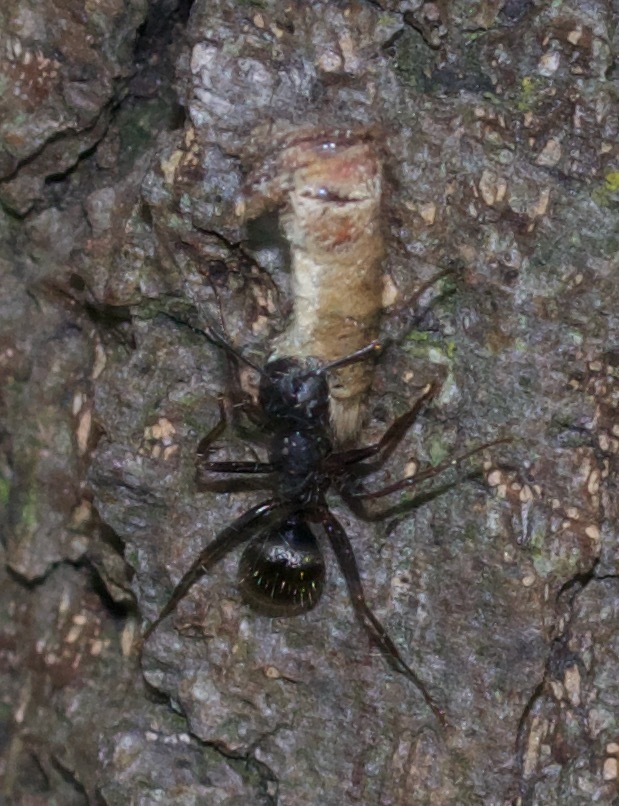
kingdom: Animalia
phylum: Arthropoda
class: Insecta
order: Hymenoptera
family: Formicidae
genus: Camponotus
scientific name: Camponotus pennsylvanicus
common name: Black carpenter ant
